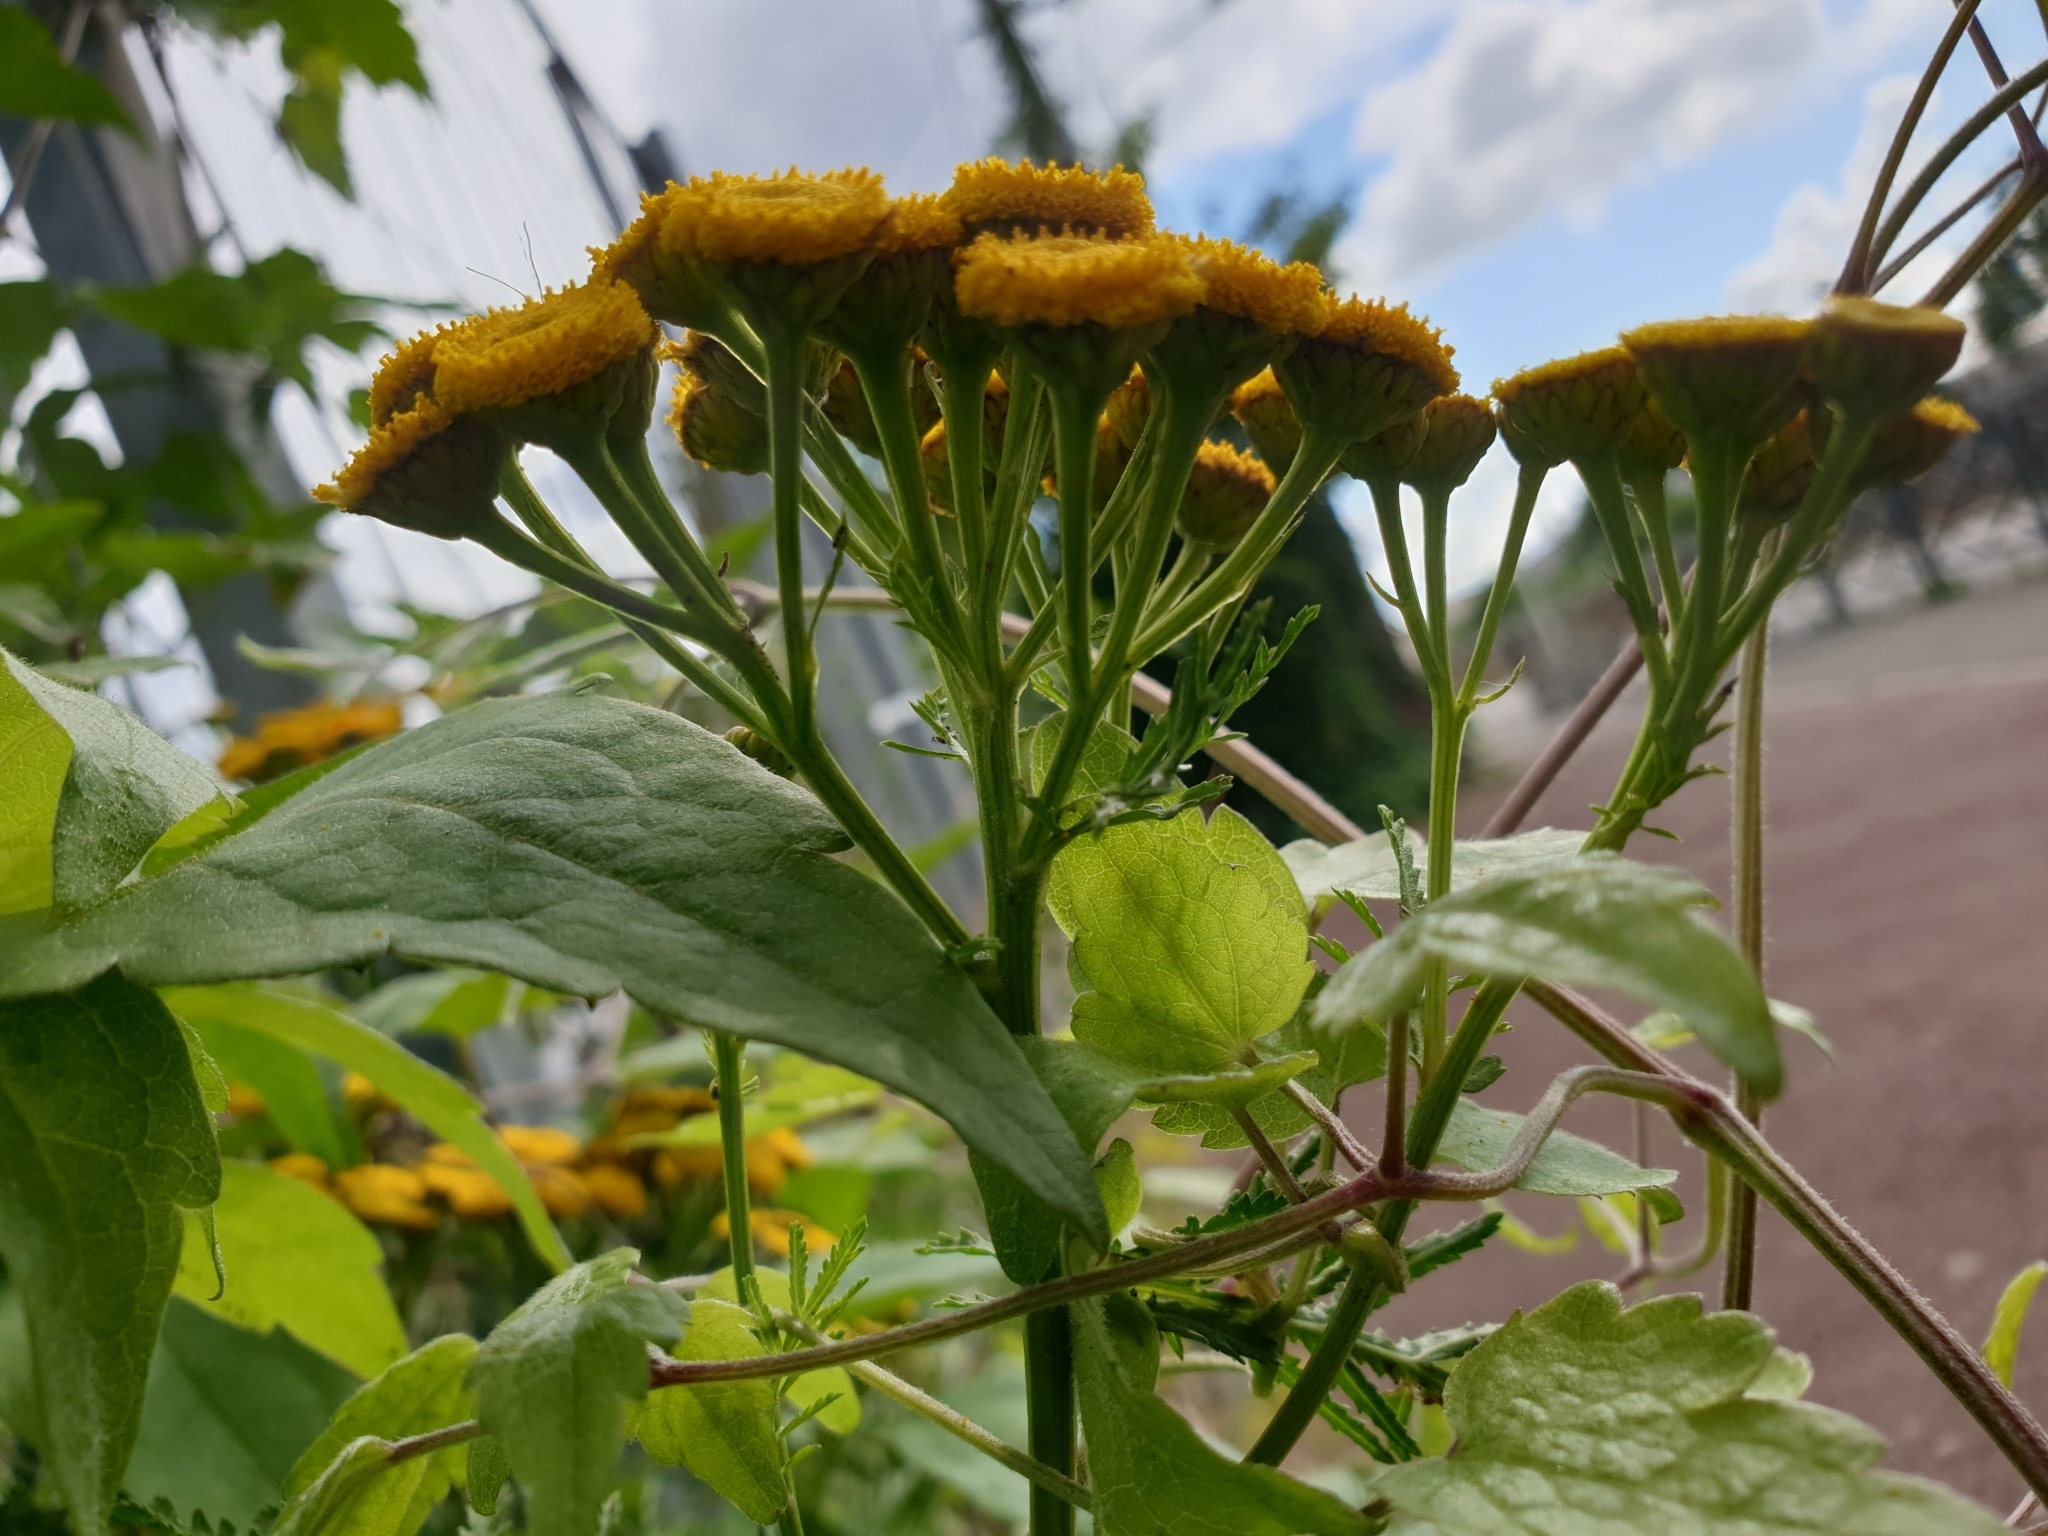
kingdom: Plantae
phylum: Tracheophyta
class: Magnoliopsida
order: Asterales
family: Asteraceae
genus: Tanacetum
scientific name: Tanacetum vulgare
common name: Common tansy
